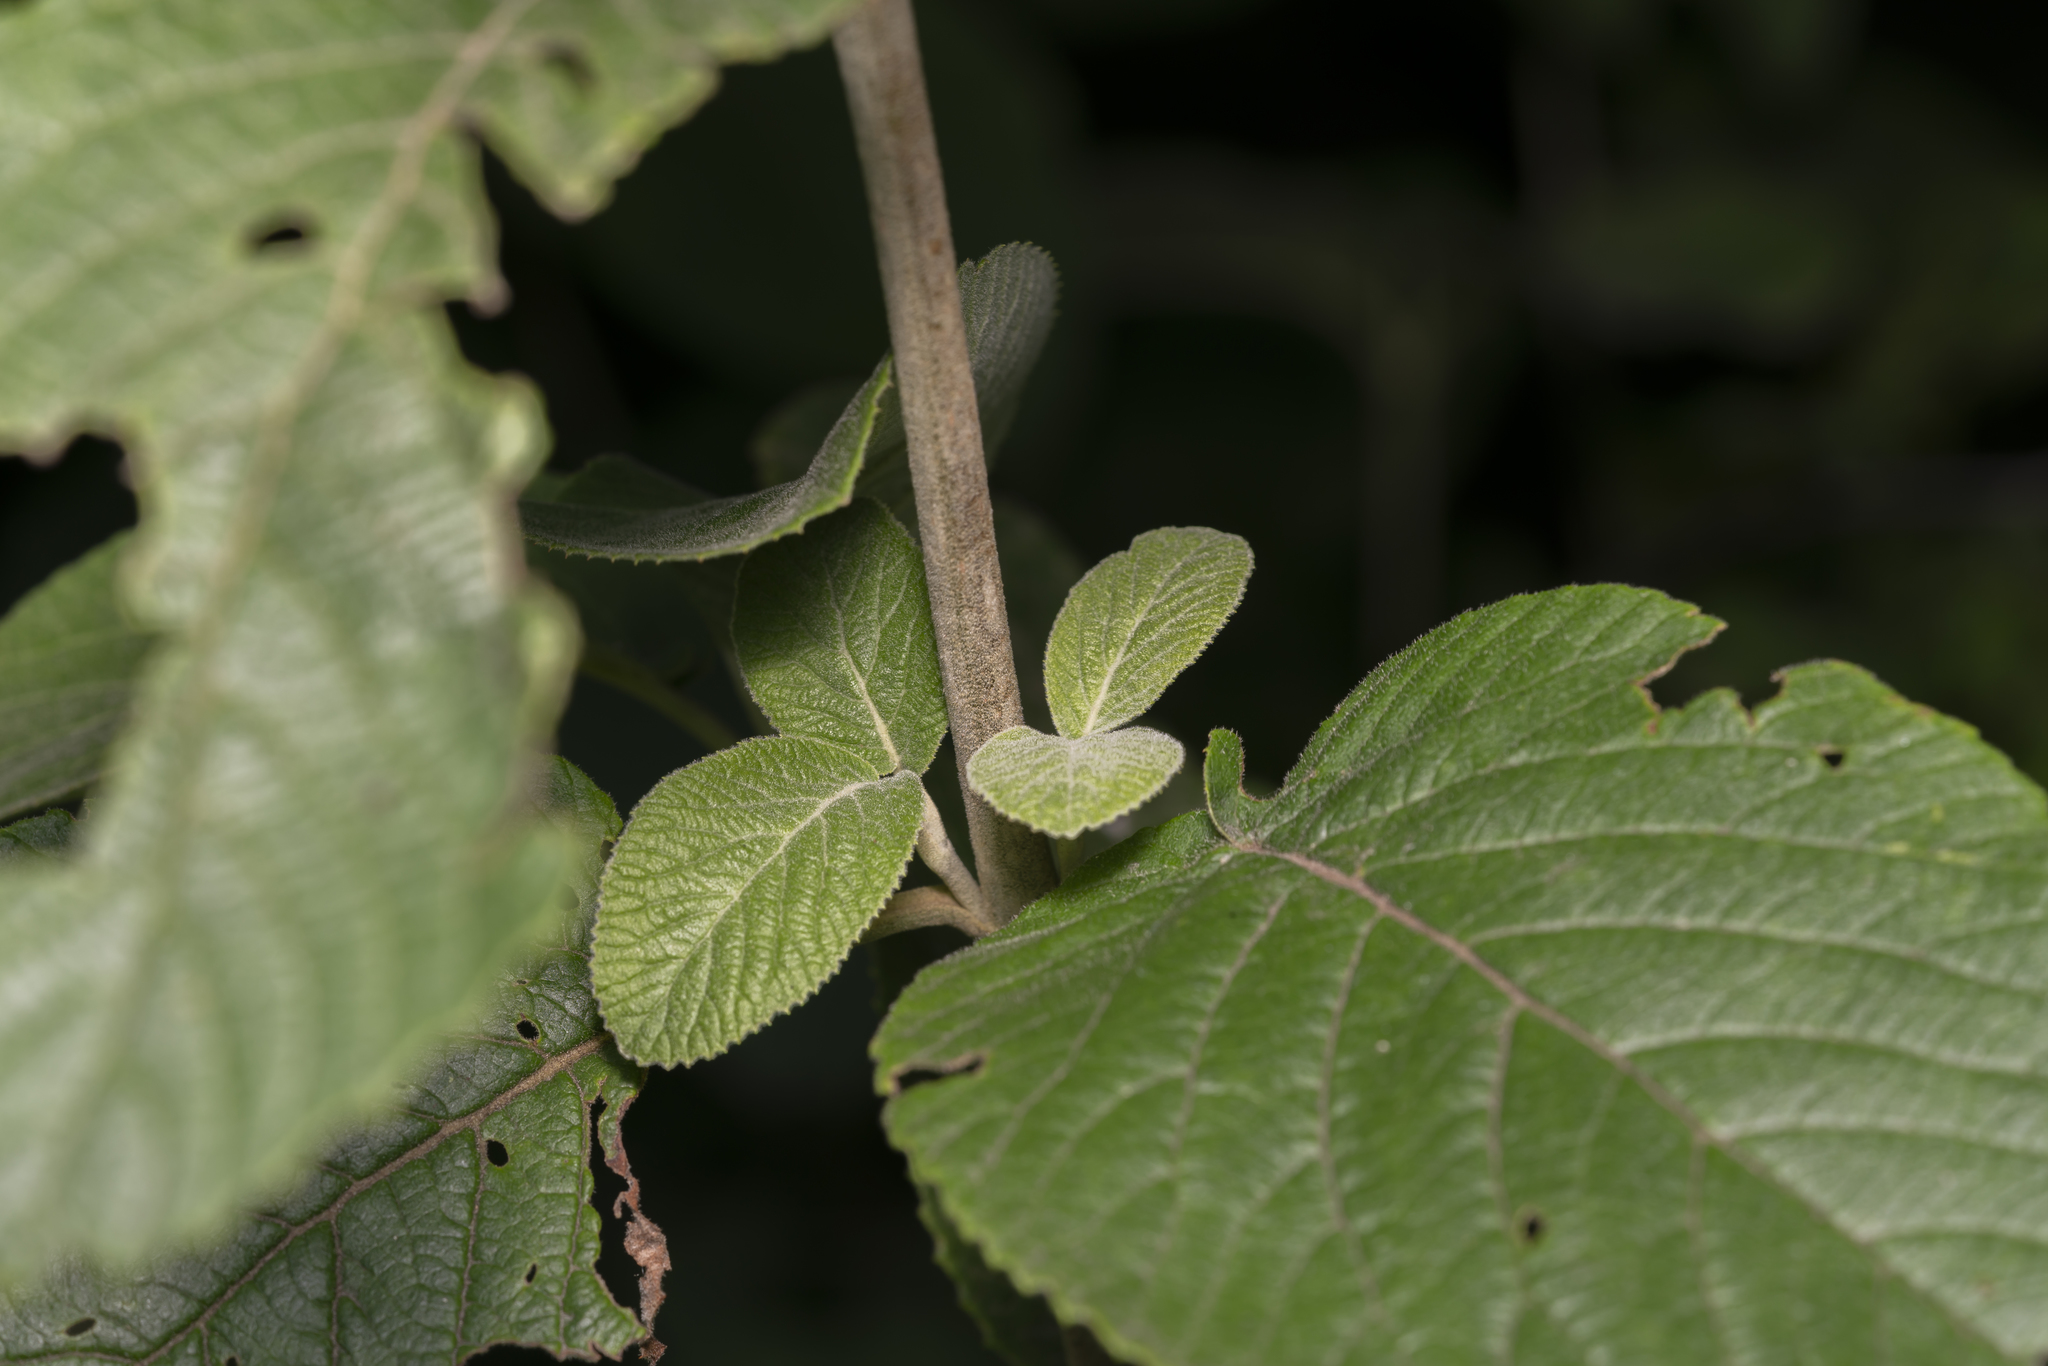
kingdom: Plantae
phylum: Tracheophyta
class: Magnoliopsida
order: Dipsacales
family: Viburnaceae
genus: Viburnum
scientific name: Viburnum lantana
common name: Wayfaring tree
